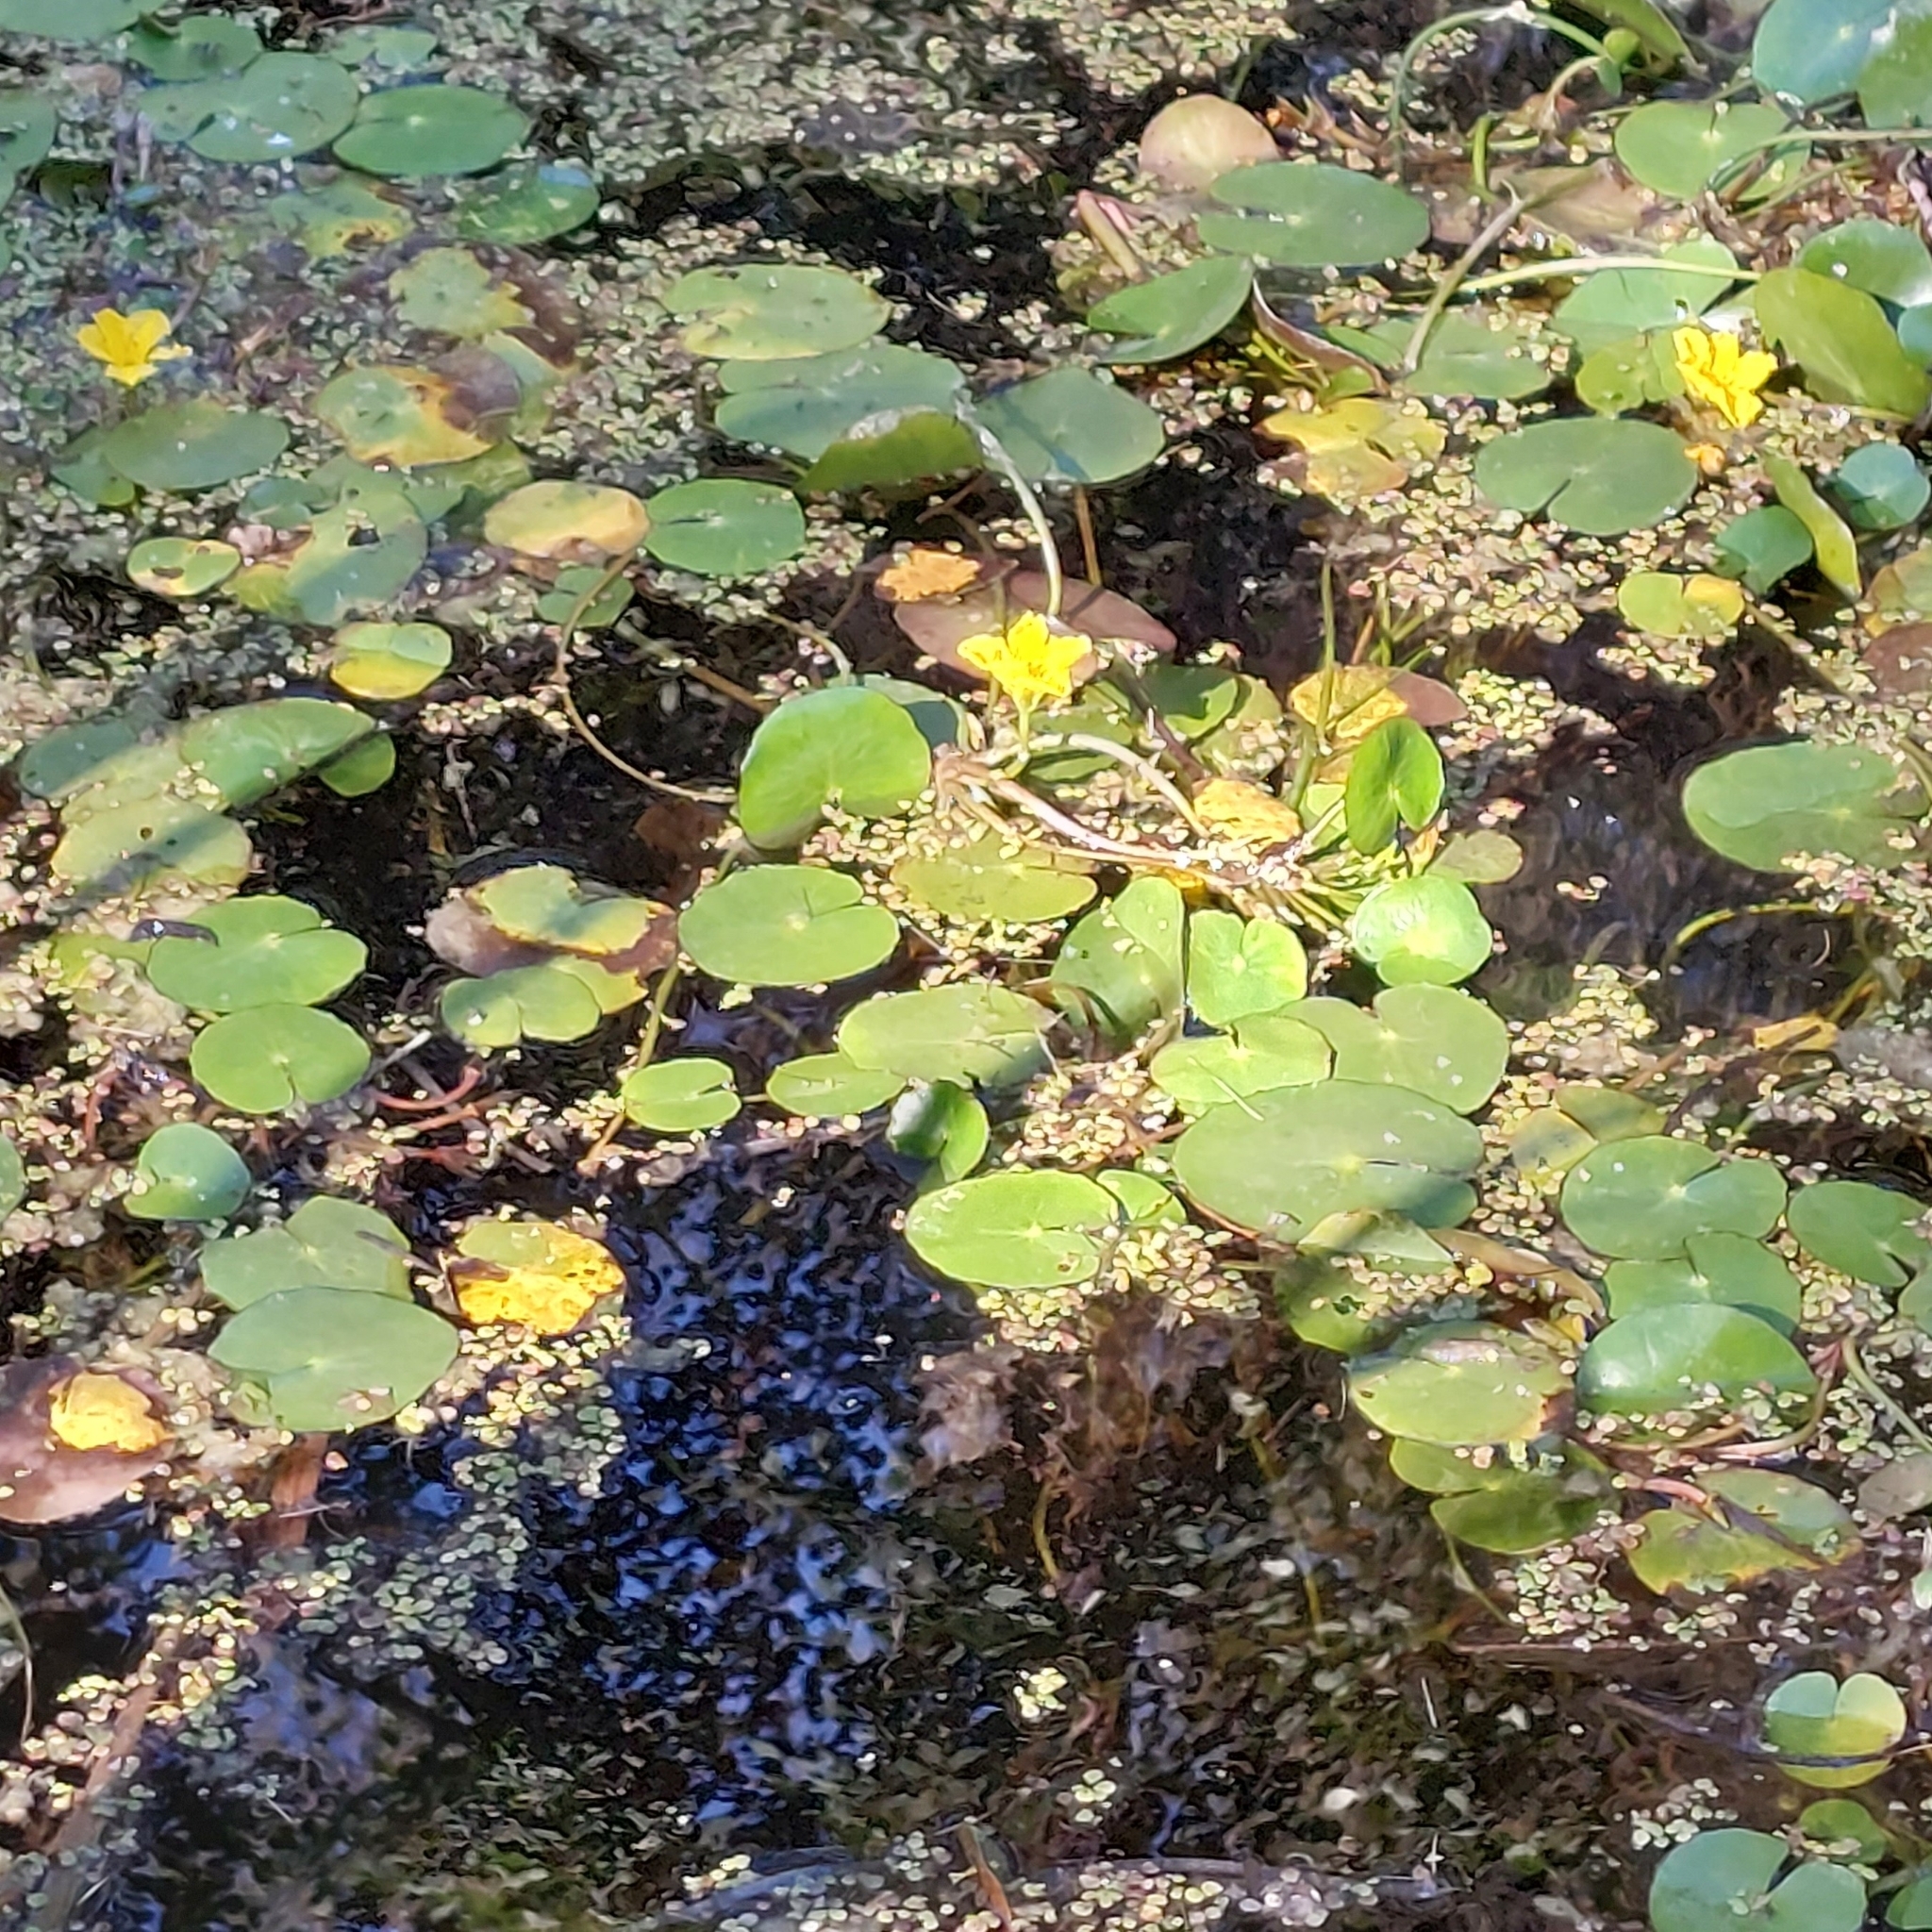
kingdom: Plantae
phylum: Tracheophyta
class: Magnoliopsida
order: Asterales
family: Menyanthaceae
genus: Nymphoides
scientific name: Nymphoides peltata
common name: Fringed water-lily
